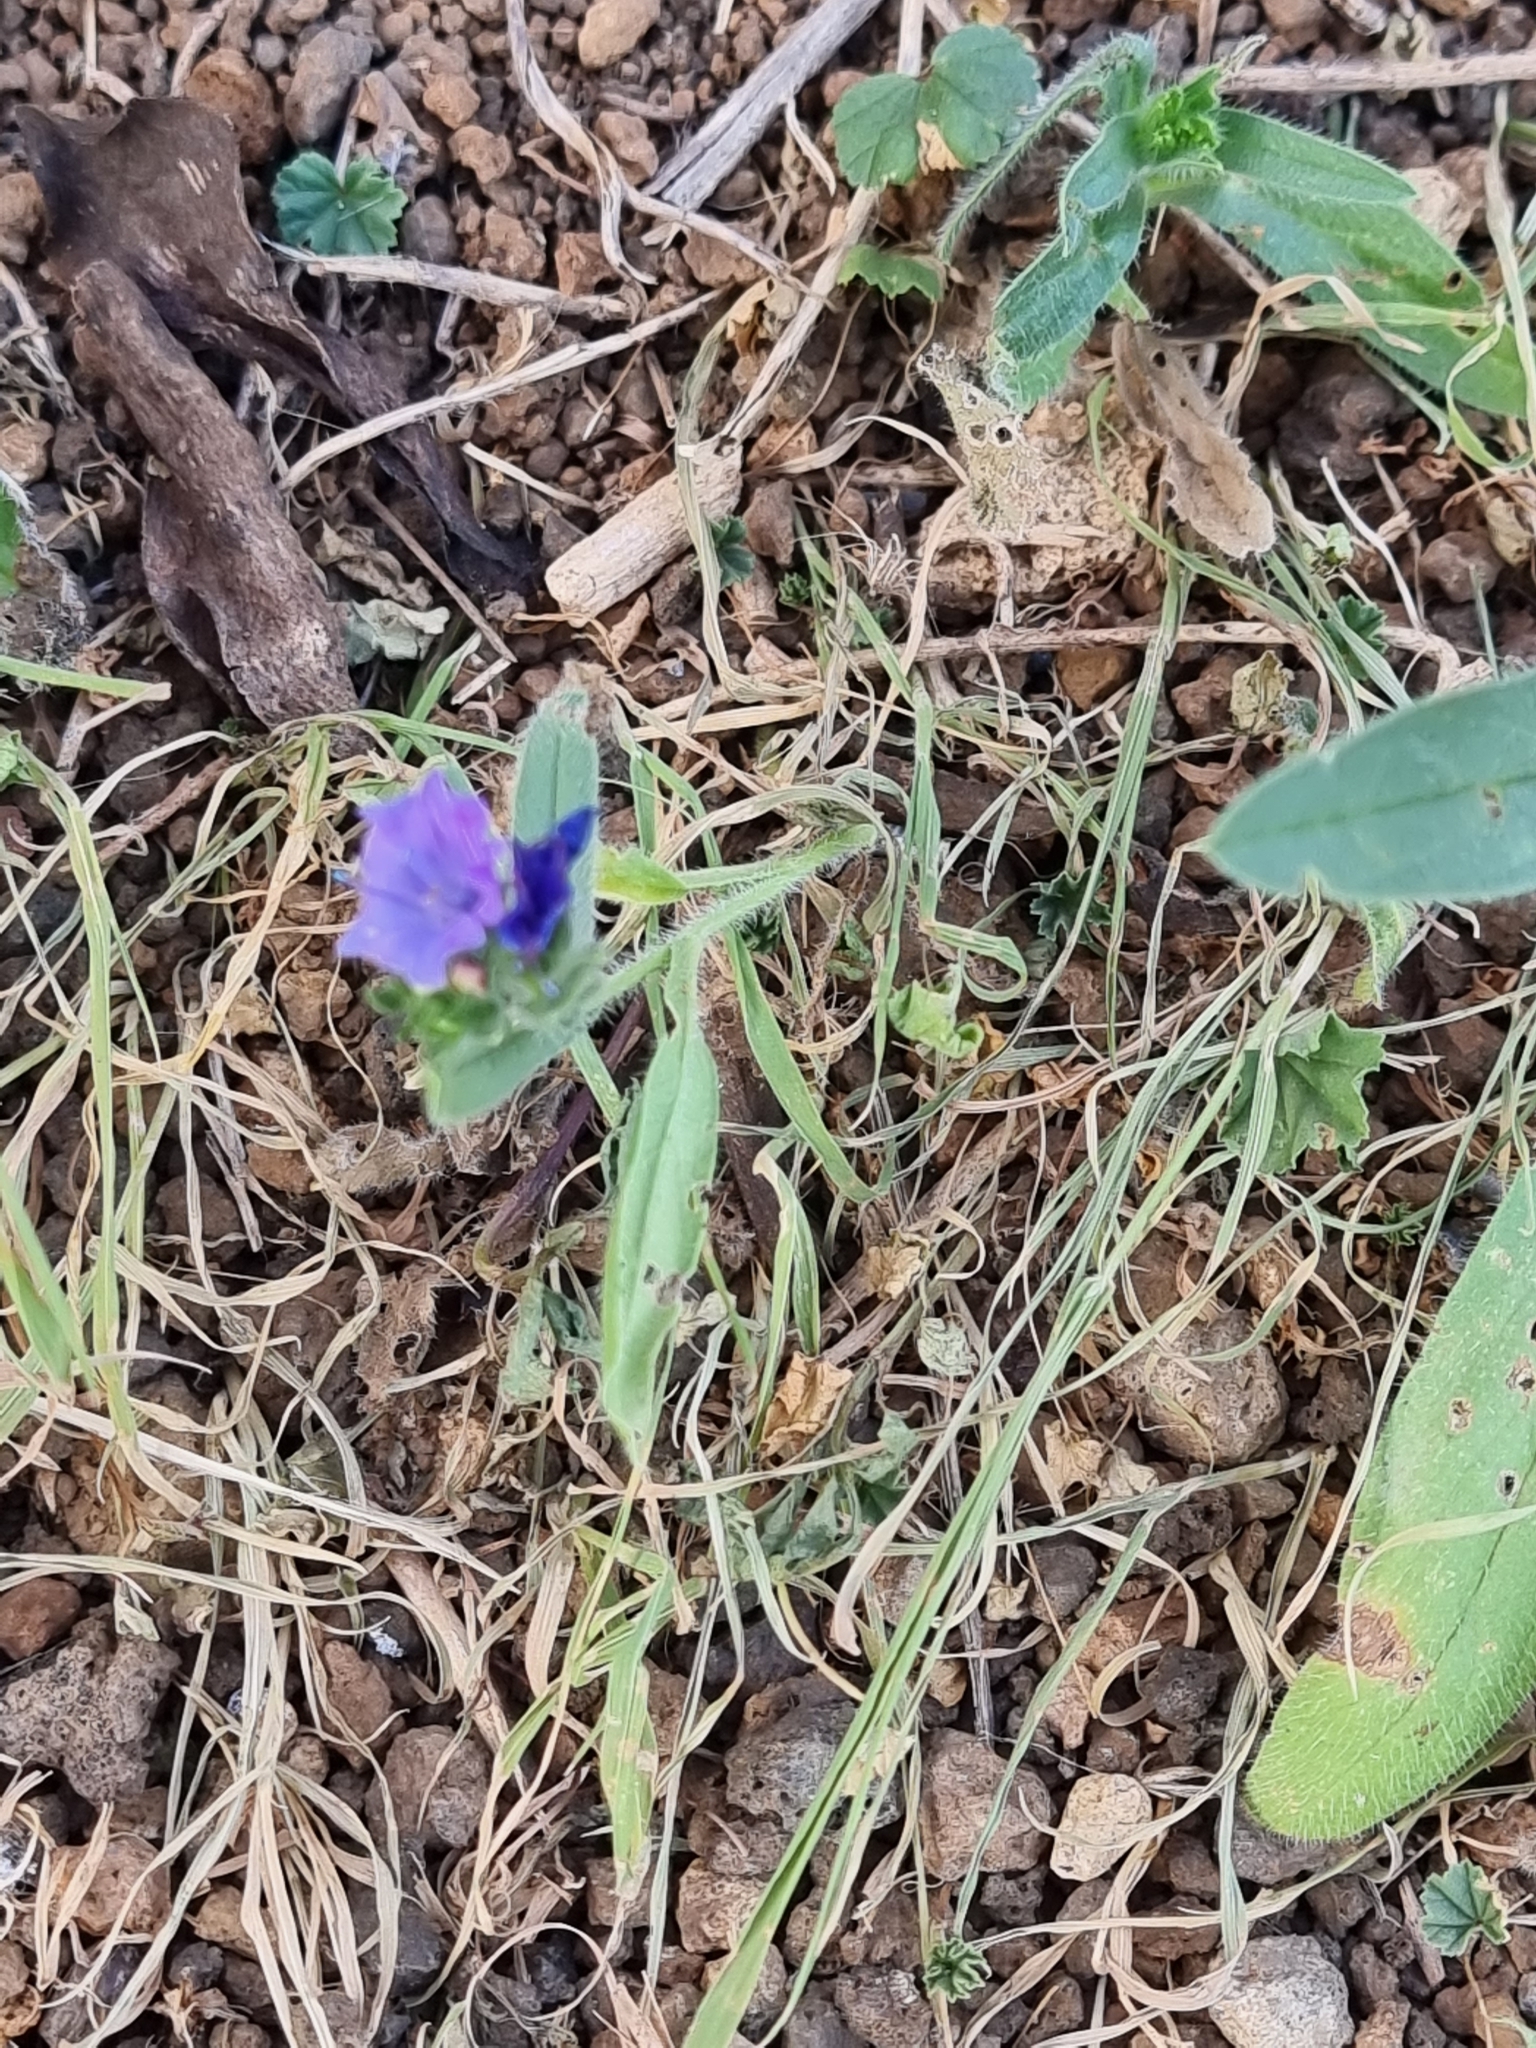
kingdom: Plantae
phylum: Tracheophyta
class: Magnoliopsida
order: Boraginales
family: Boraginaceae
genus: Echium
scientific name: Echium plantagineum
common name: Purple viper's-bugloss
